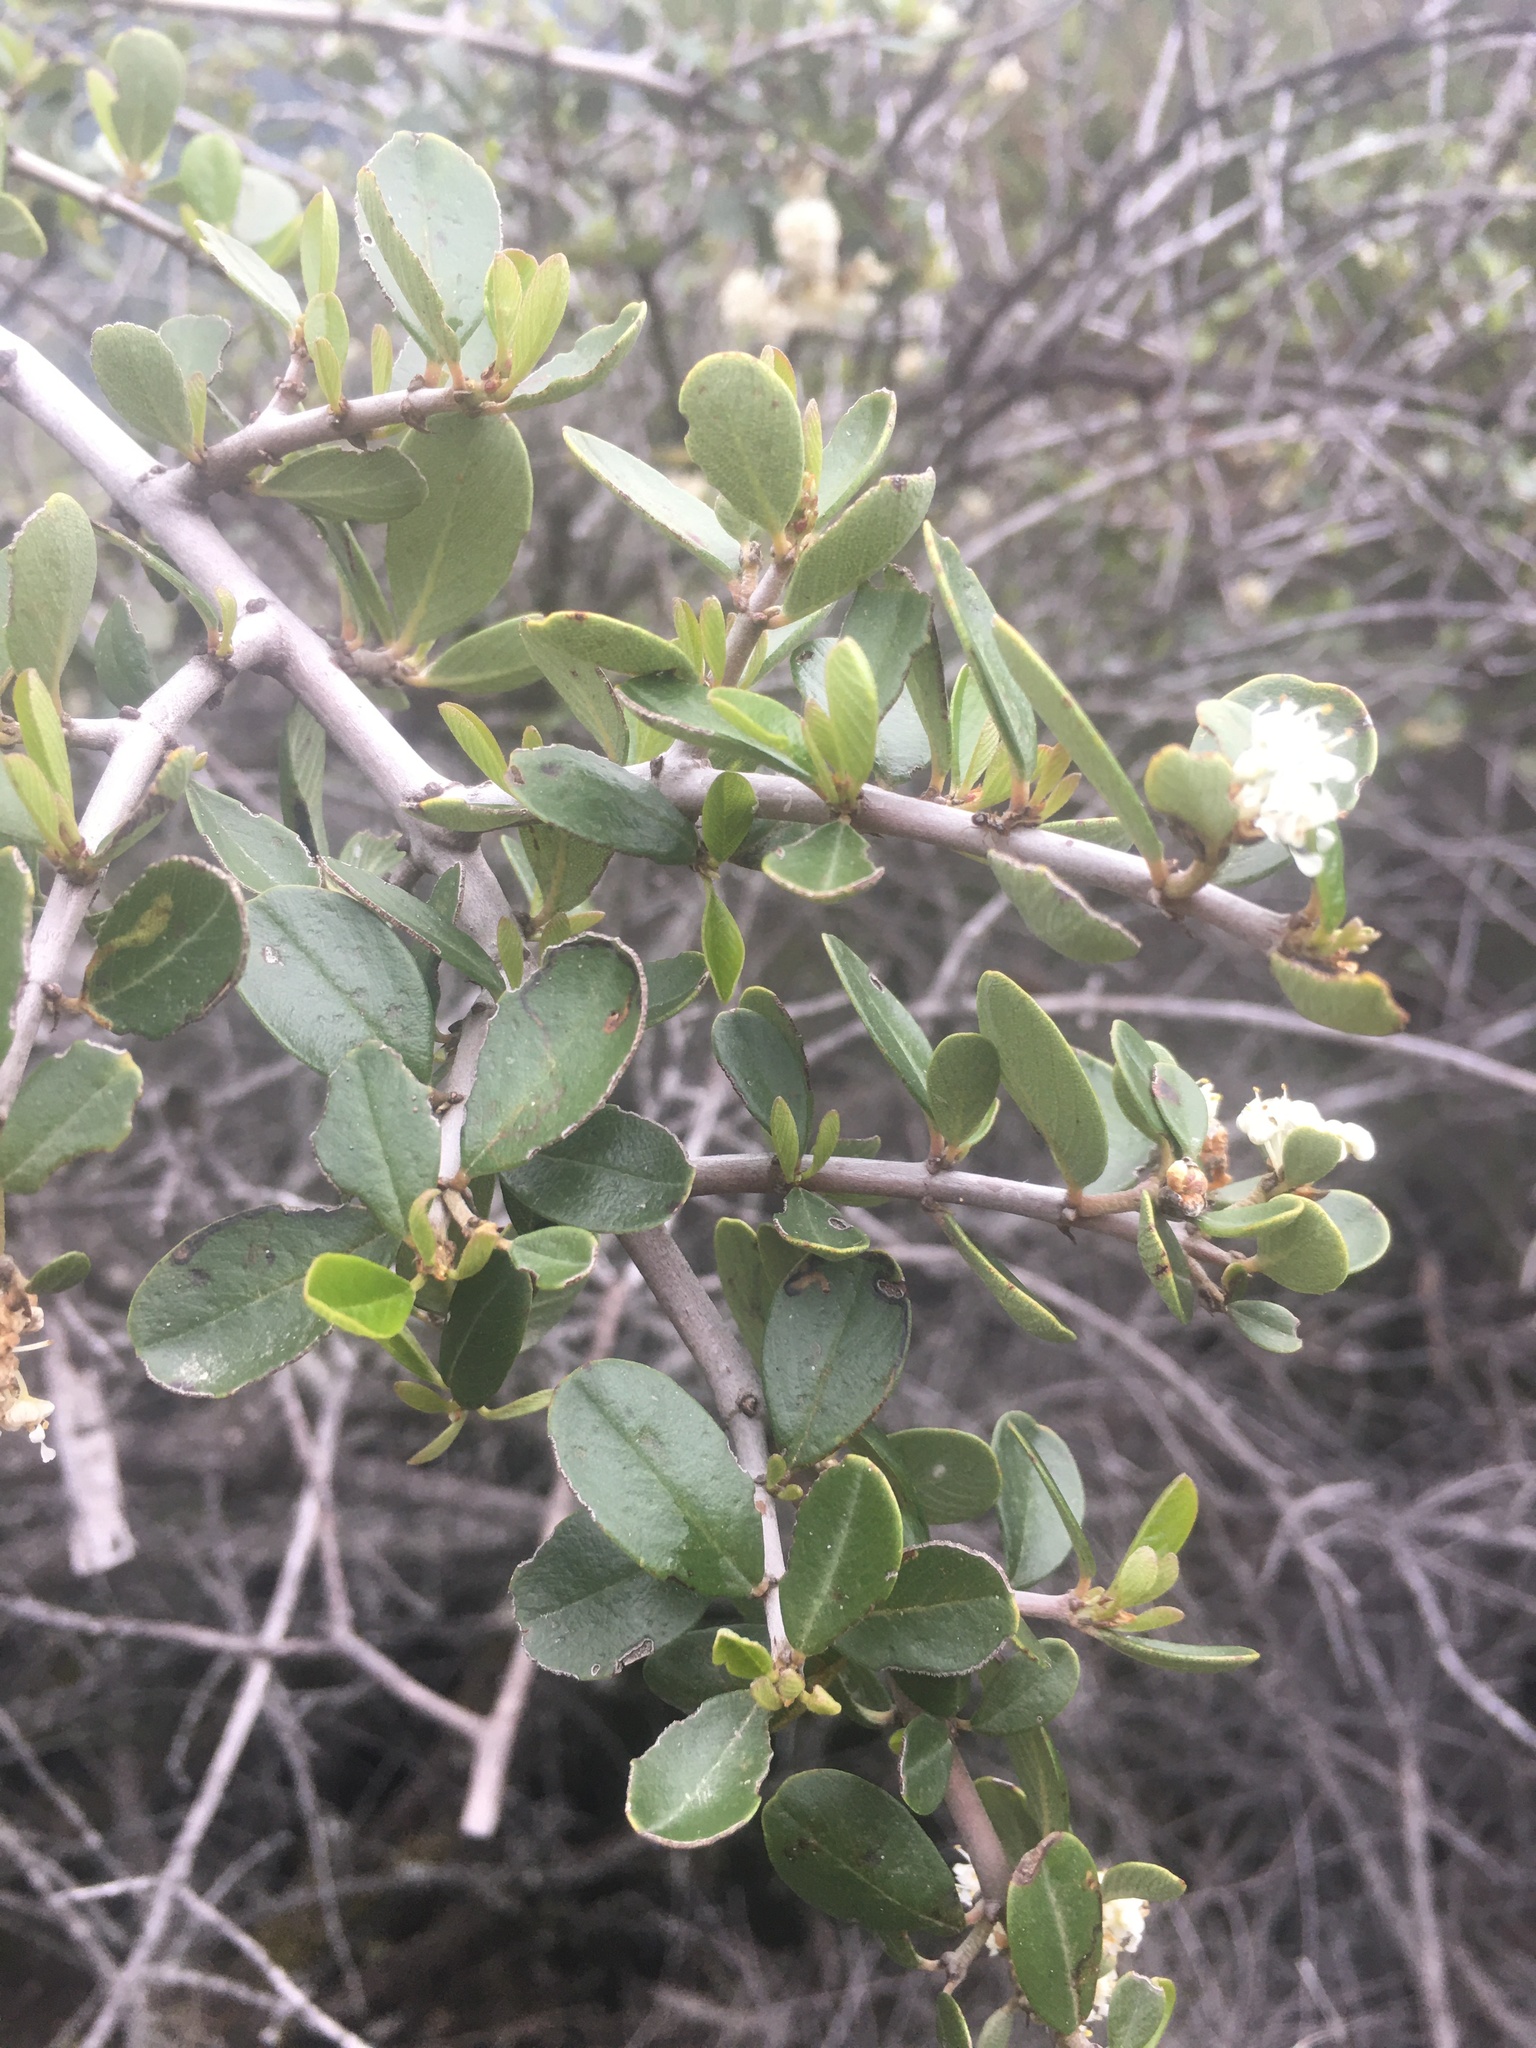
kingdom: Plantae
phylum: Tracheophyta
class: Magnoliopsida
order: Rosales
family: Rhamnaceae
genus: Ceanothus
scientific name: Ceanothus cuneatus
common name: Cuneate ceanothus
